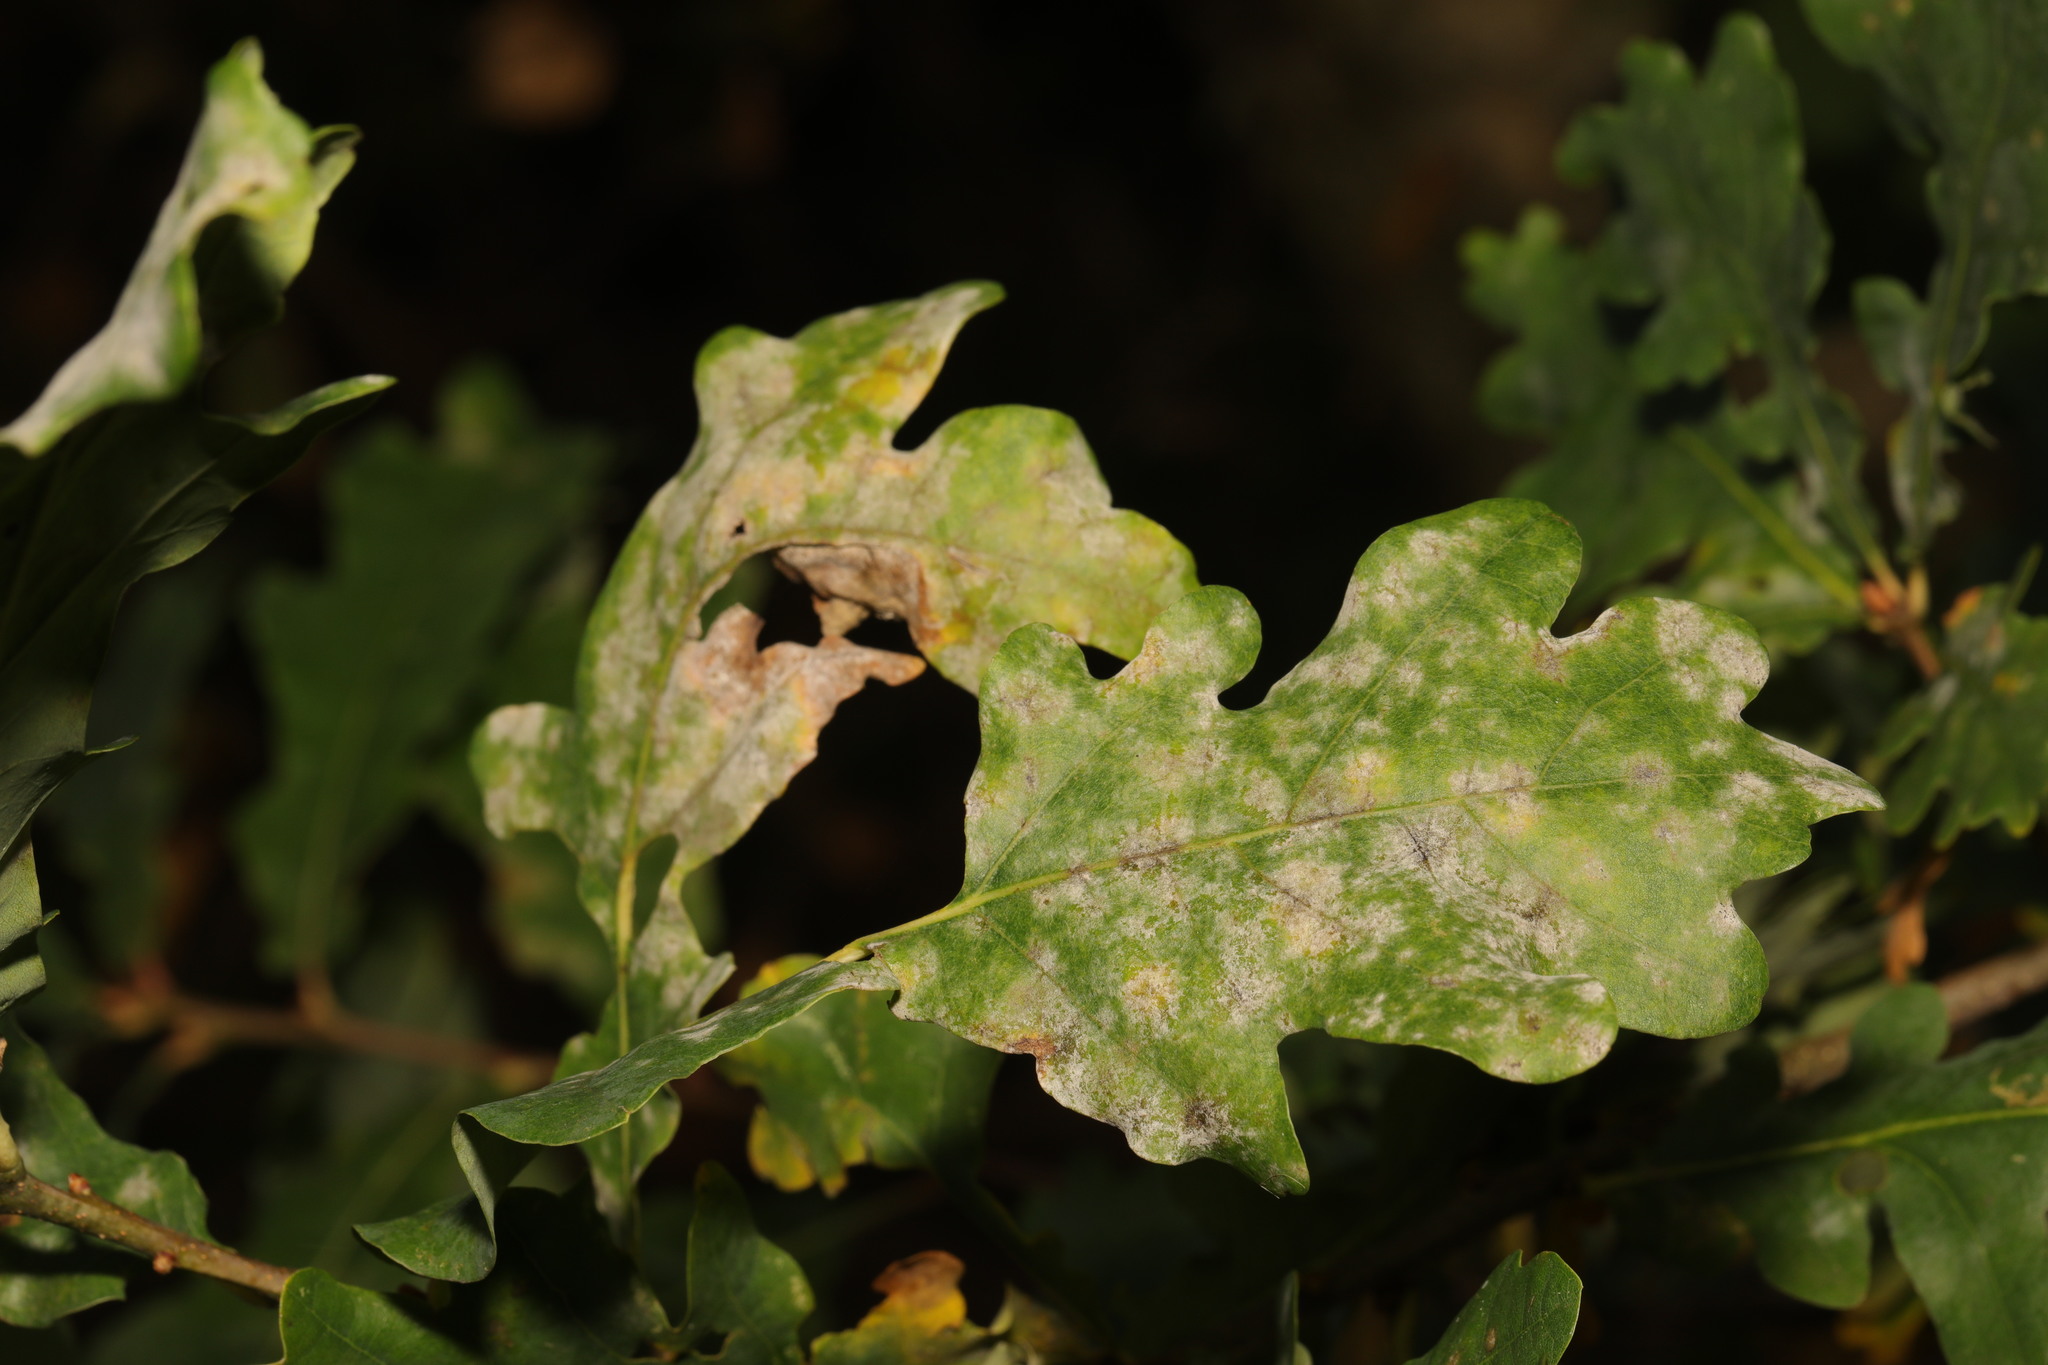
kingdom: Fungi
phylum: Ascomycota
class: Leotiomycetes
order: Helotiales
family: Erysiphaceae
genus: Erysiphe
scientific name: Erysiphe alphitoides
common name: Oak mildew
